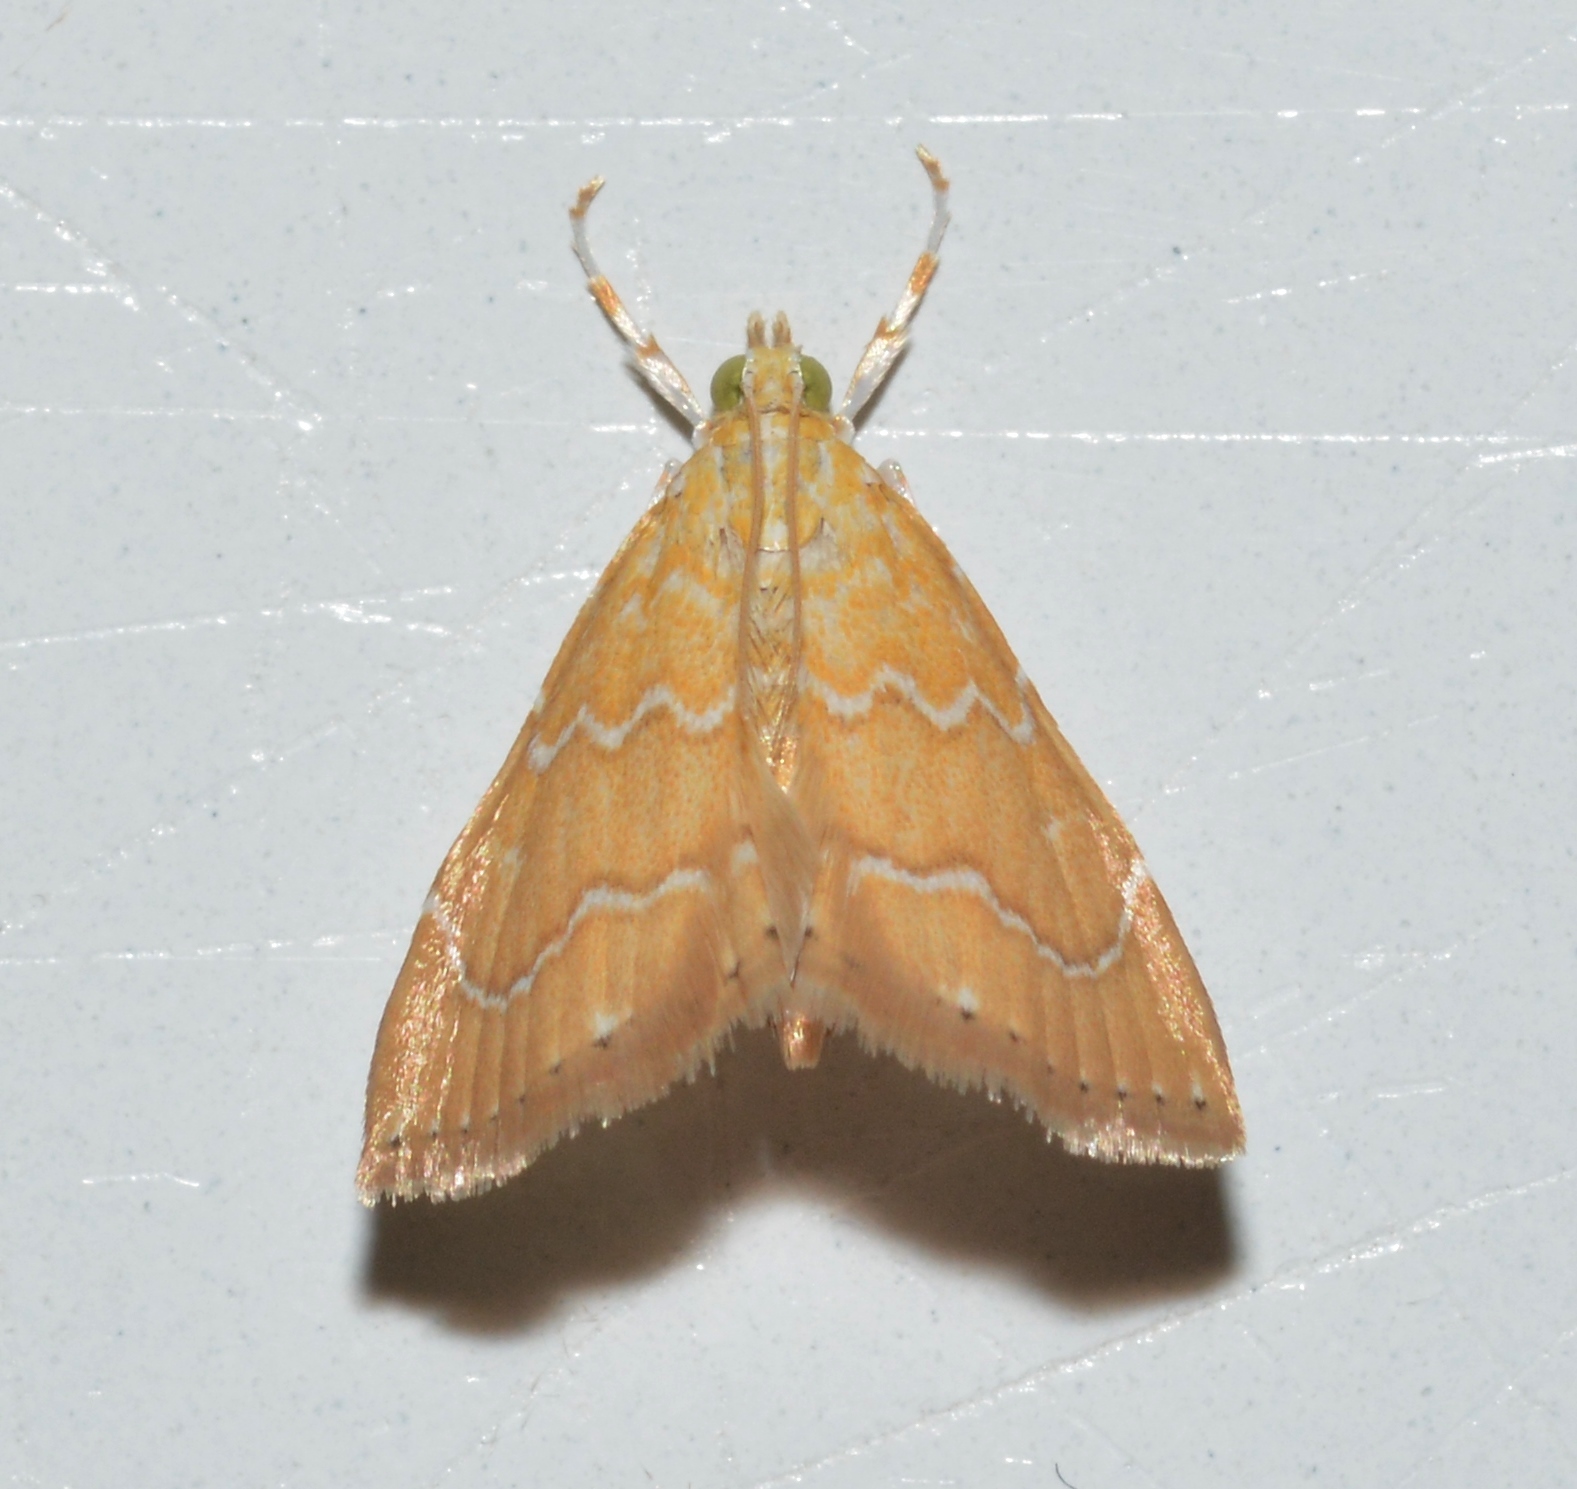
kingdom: Animalia
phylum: Arthropoda
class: Insecta
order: Lepidoptera
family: Crambidae
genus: Glaphyria
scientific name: Glaphyria sesquistrialis
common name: White-roped glaphyria
